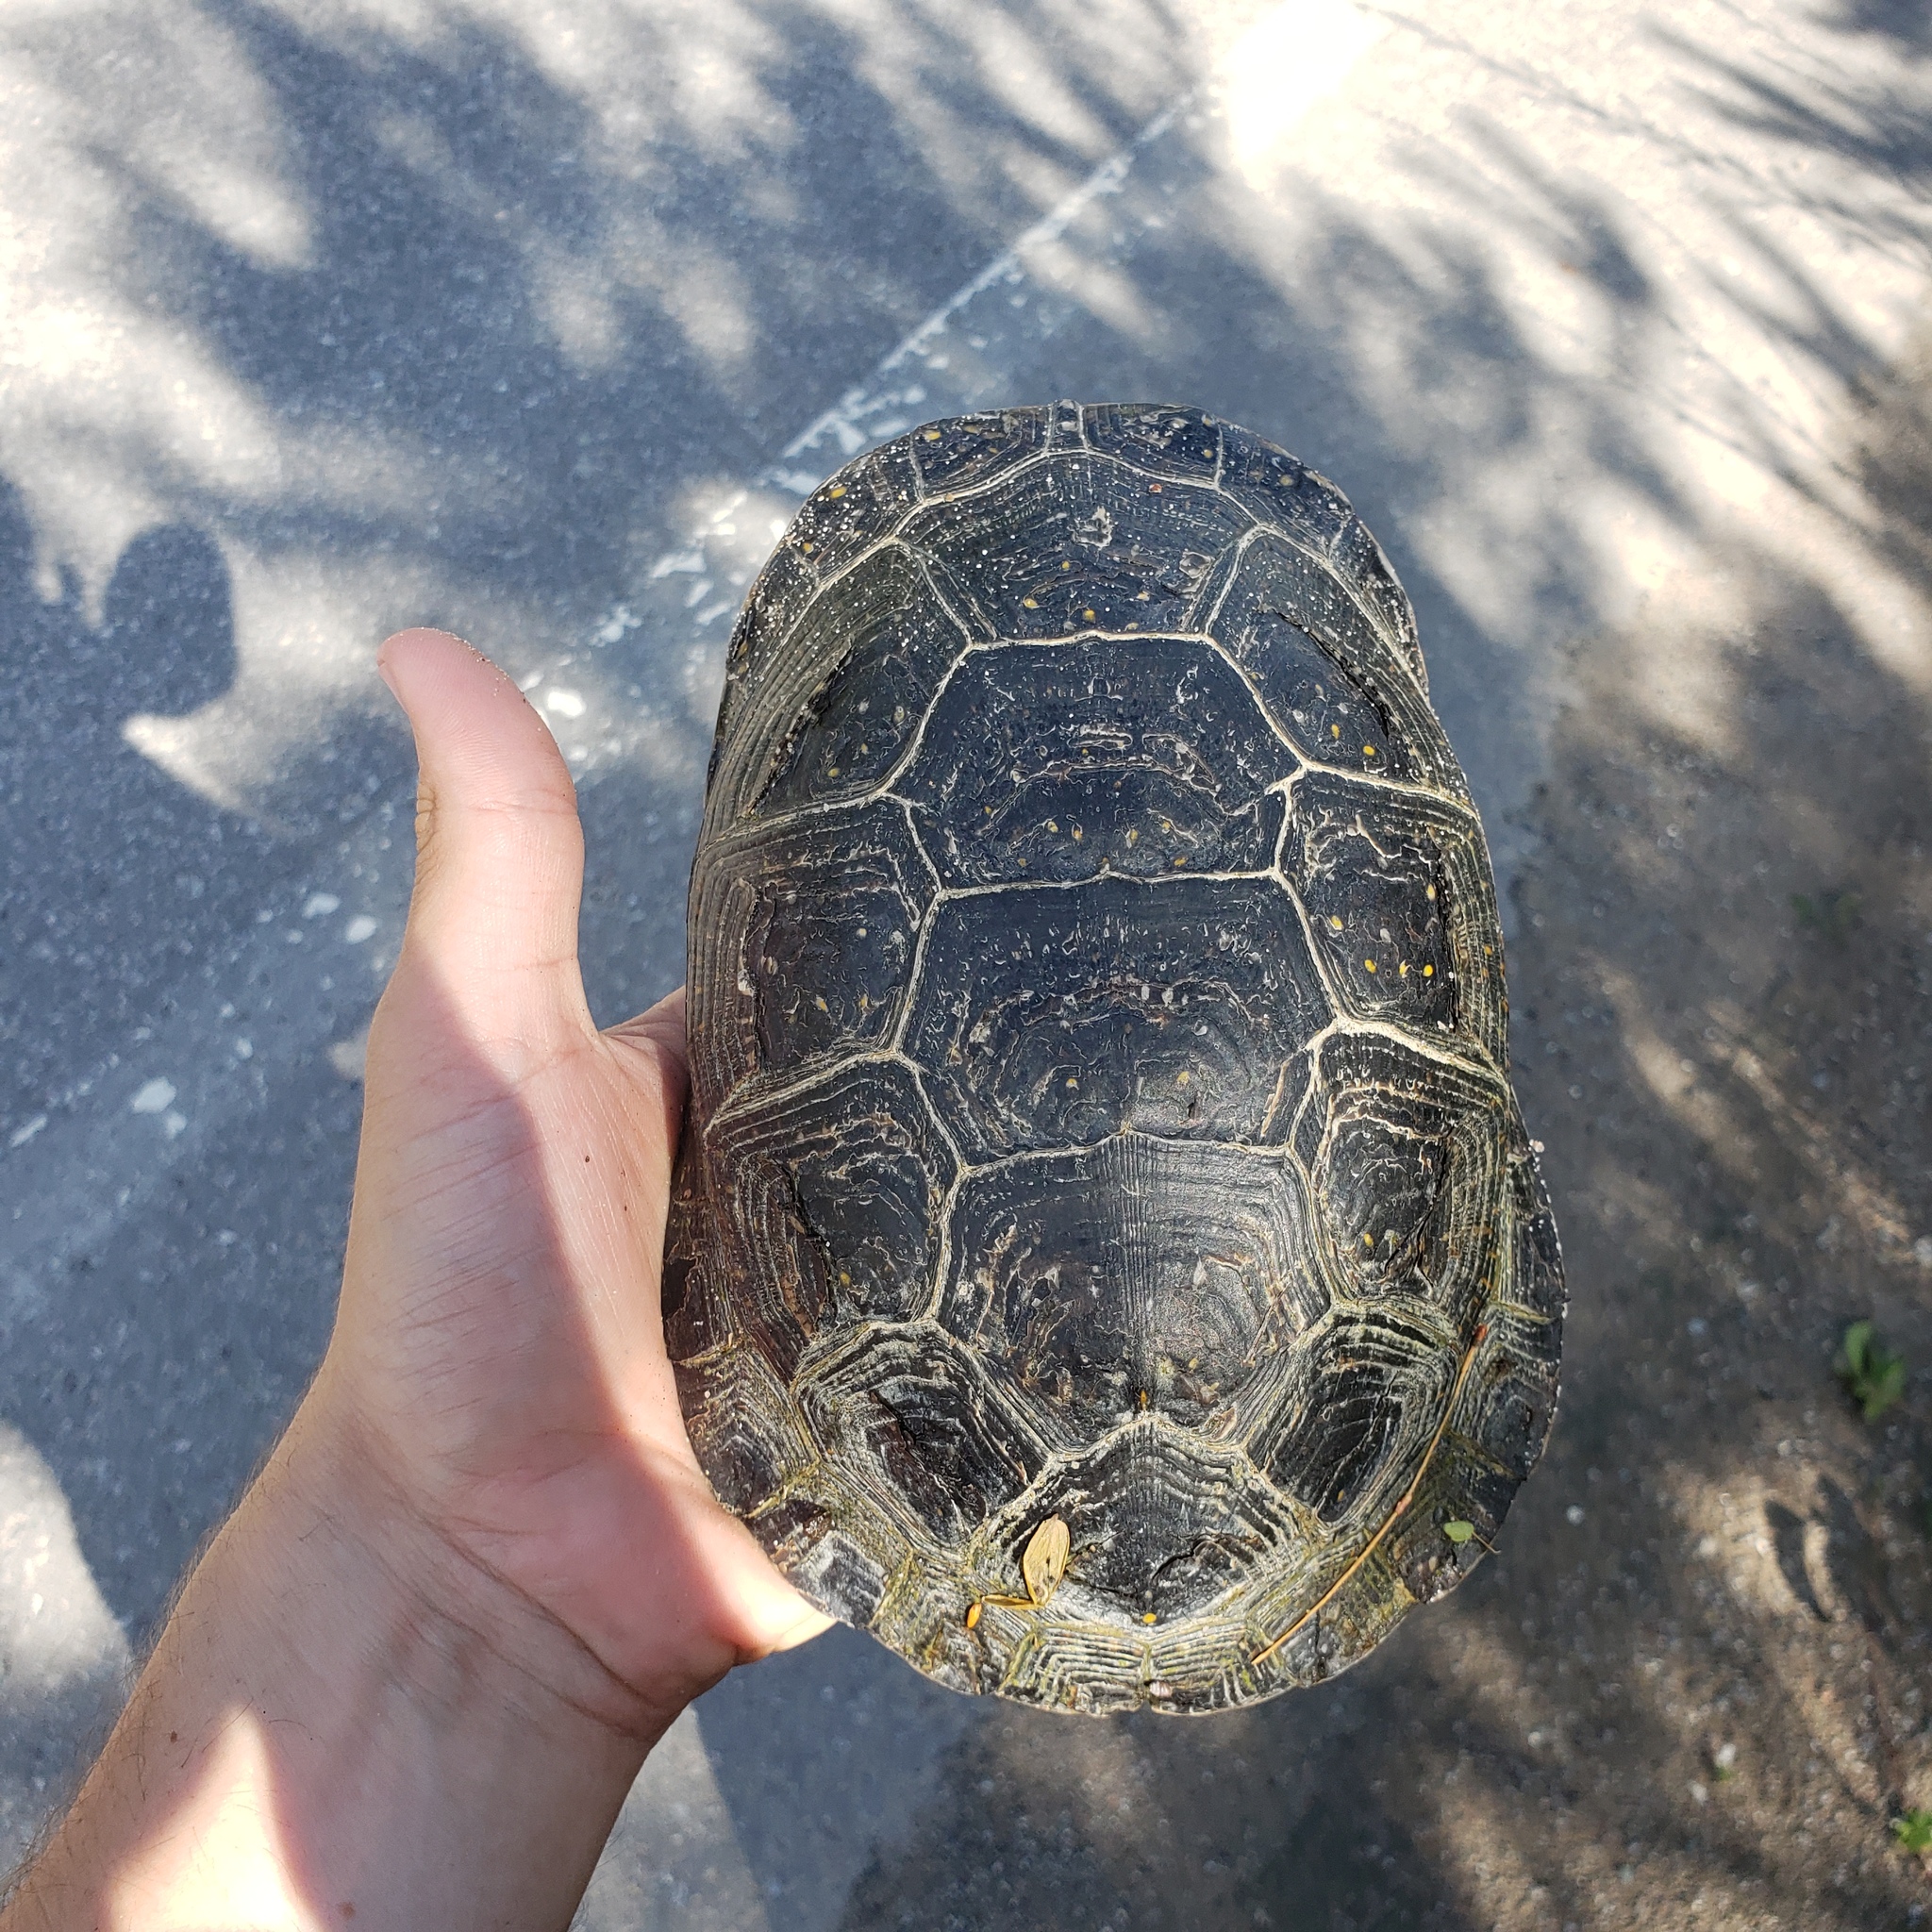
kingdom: Animalia
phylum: Chordata
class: Testudines
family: Emydidae
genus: Emys
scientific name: Emys blandingii
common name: Blanding's turtle
